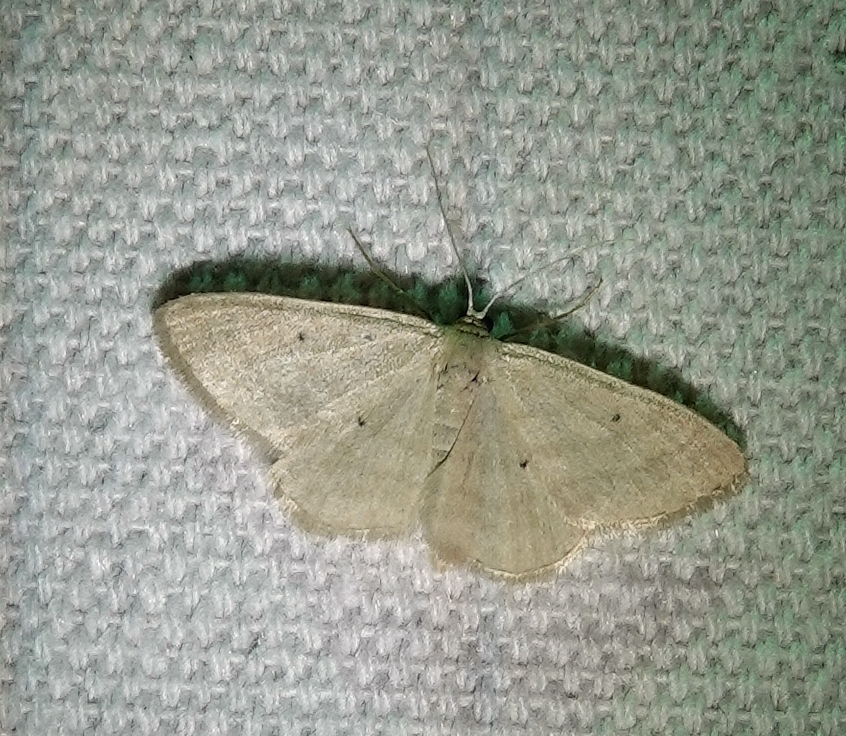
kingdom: Animalia
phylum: Arthropoda
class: Insecta
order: Lepidoptera
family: Geometridae
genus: Scopula
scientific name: Scopula inductata
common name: Soft-lined wave
